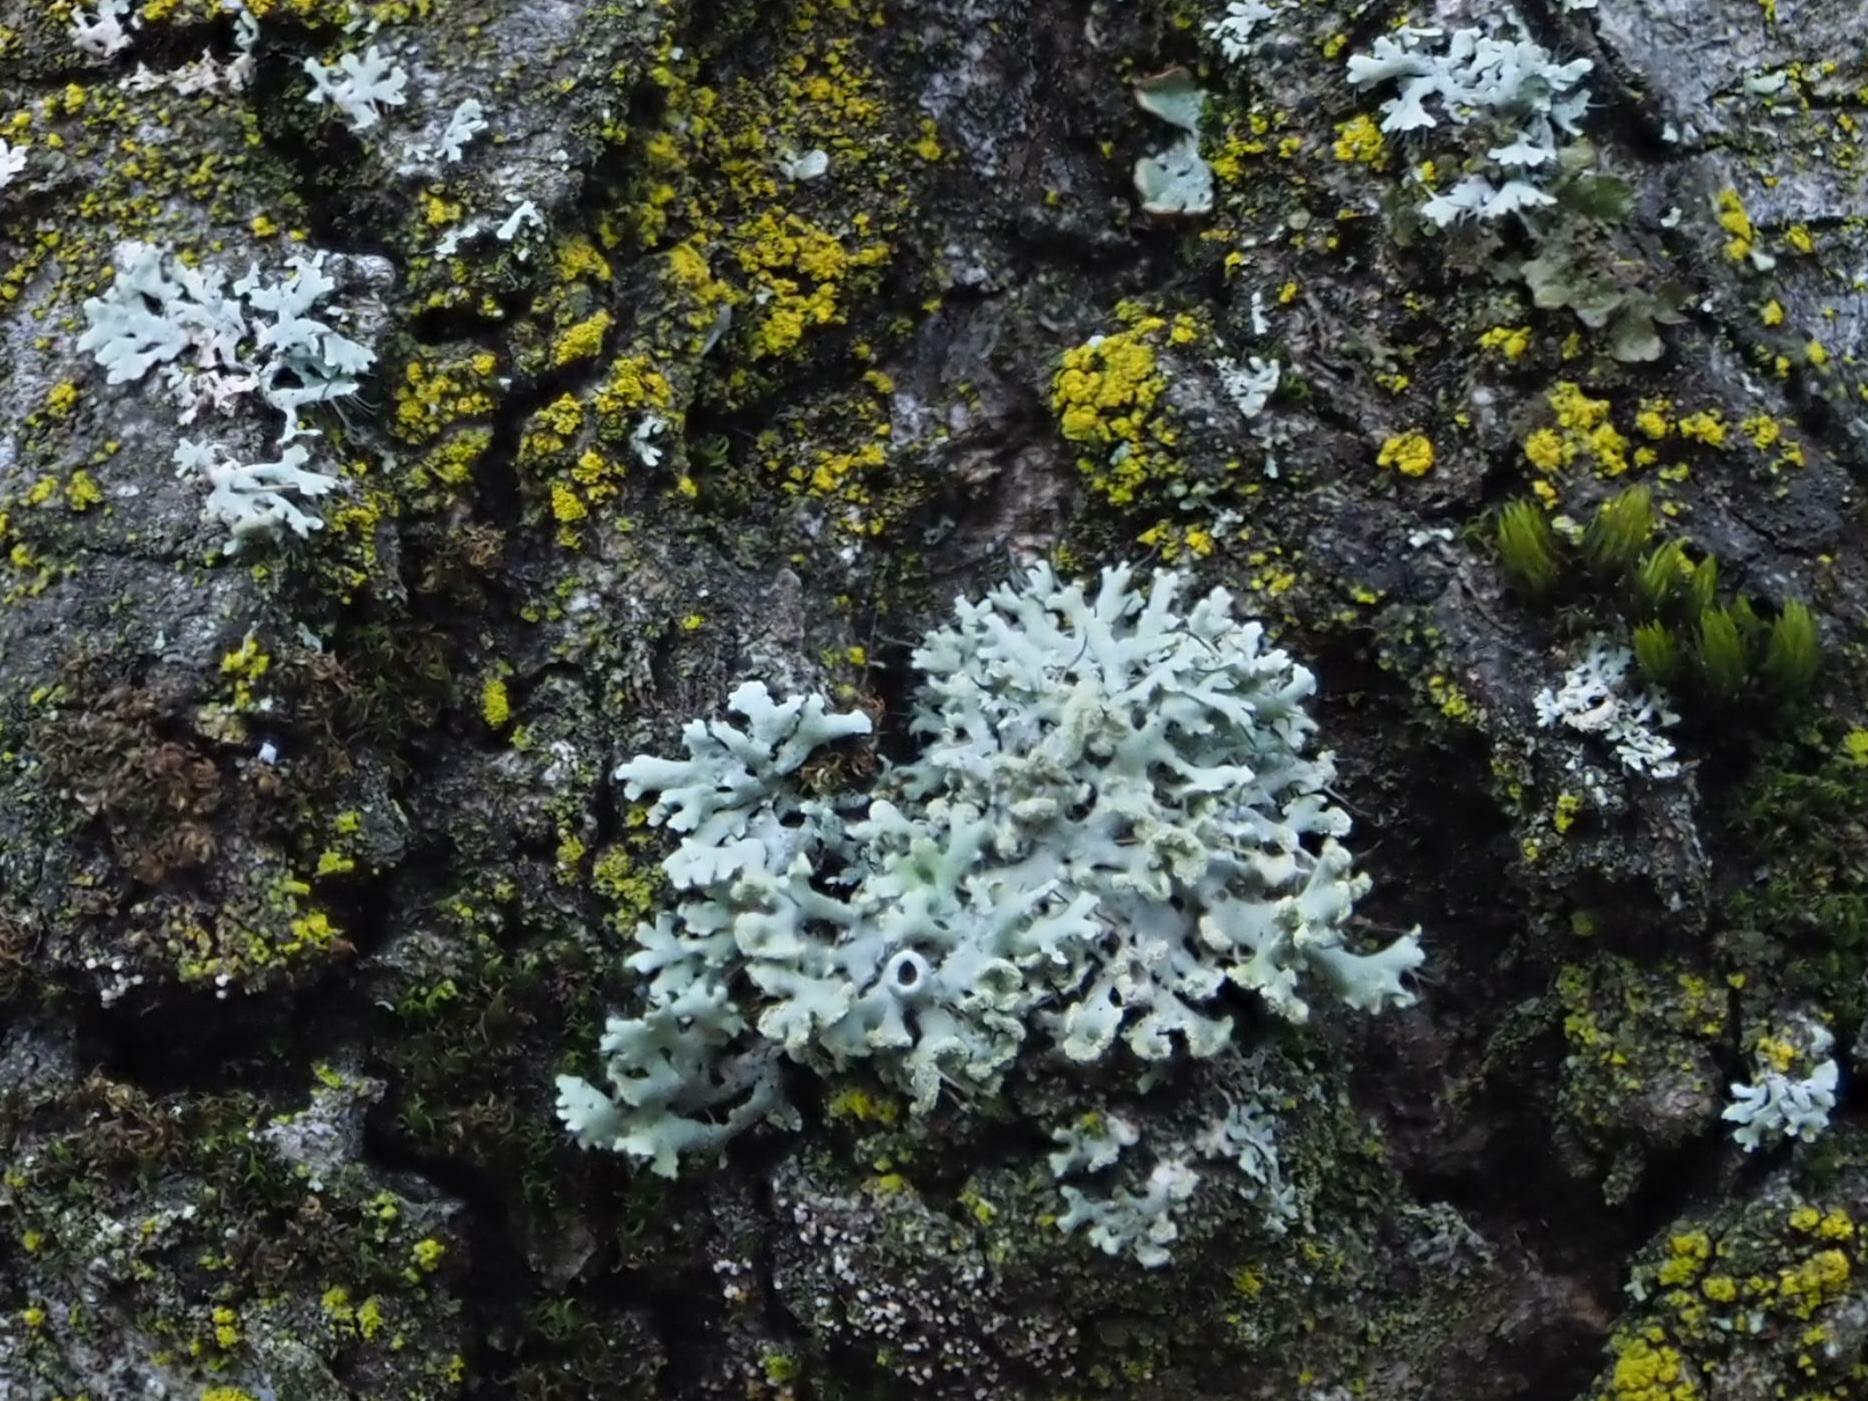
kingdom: Fungi
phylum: Ascomycota
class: Lecanoromycetes
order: Caliciales
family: Physciaceae
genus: Physcia
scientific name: Physcia tenella
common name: Fringed rosette lichen
